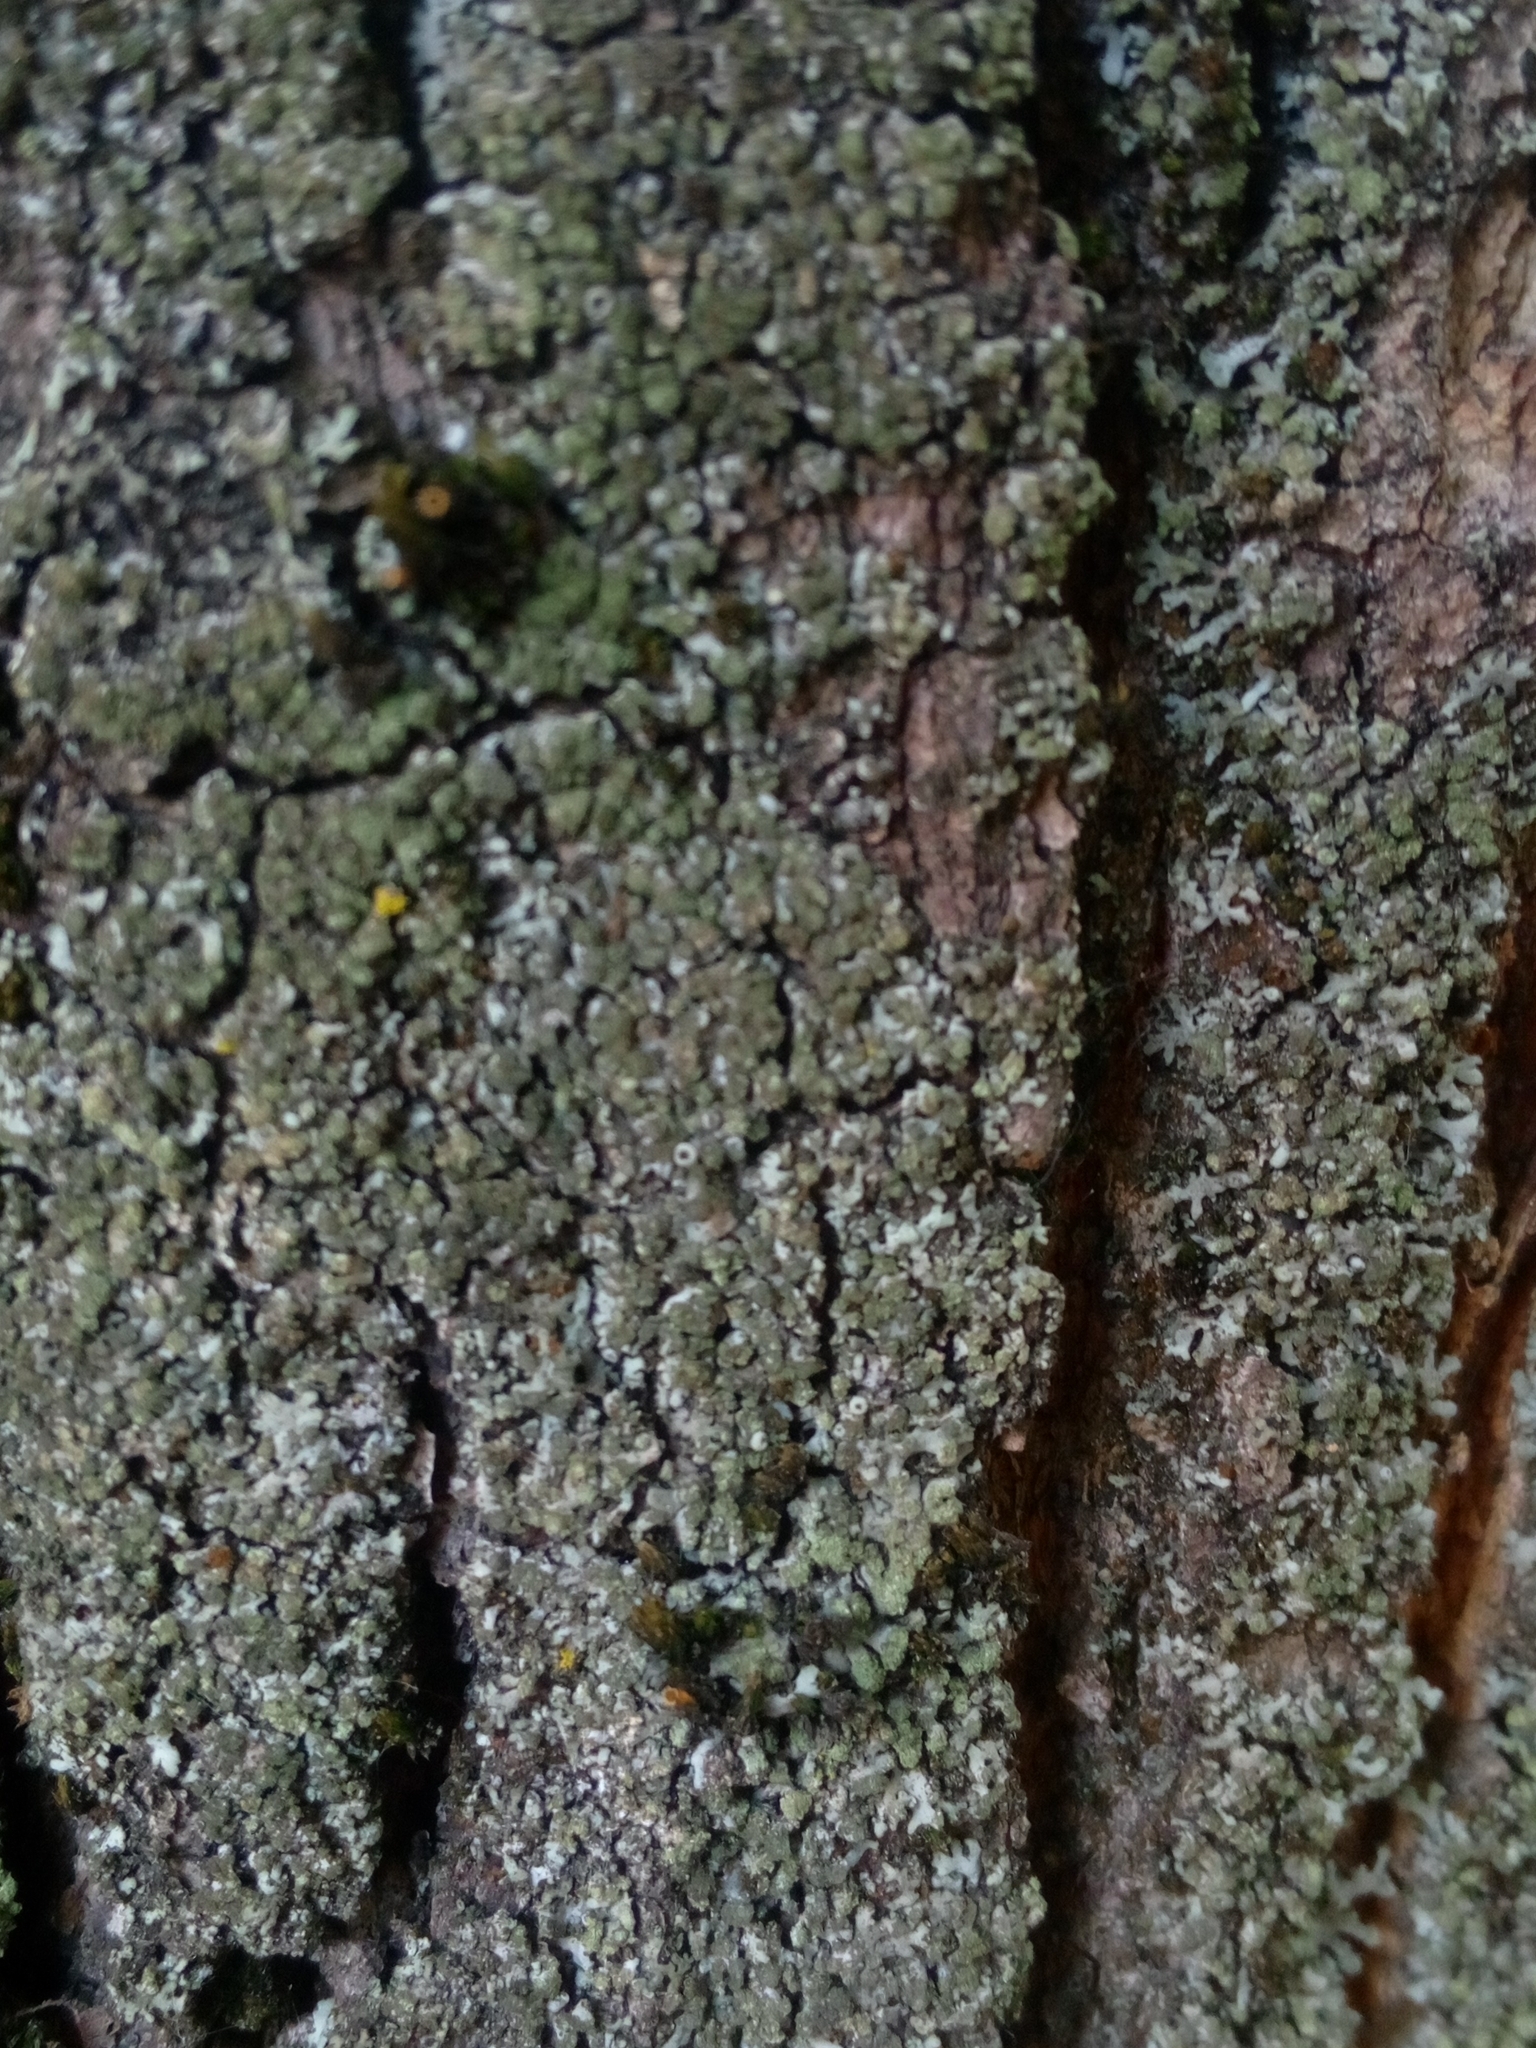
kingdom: Fungi
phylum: Ascomycota
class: Lecanoromycetes
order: Caliciales
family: Physciaceae
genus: Phaeophyscia
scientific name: Phaeophyscia orbicularis
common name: Mealy shadow lichen
